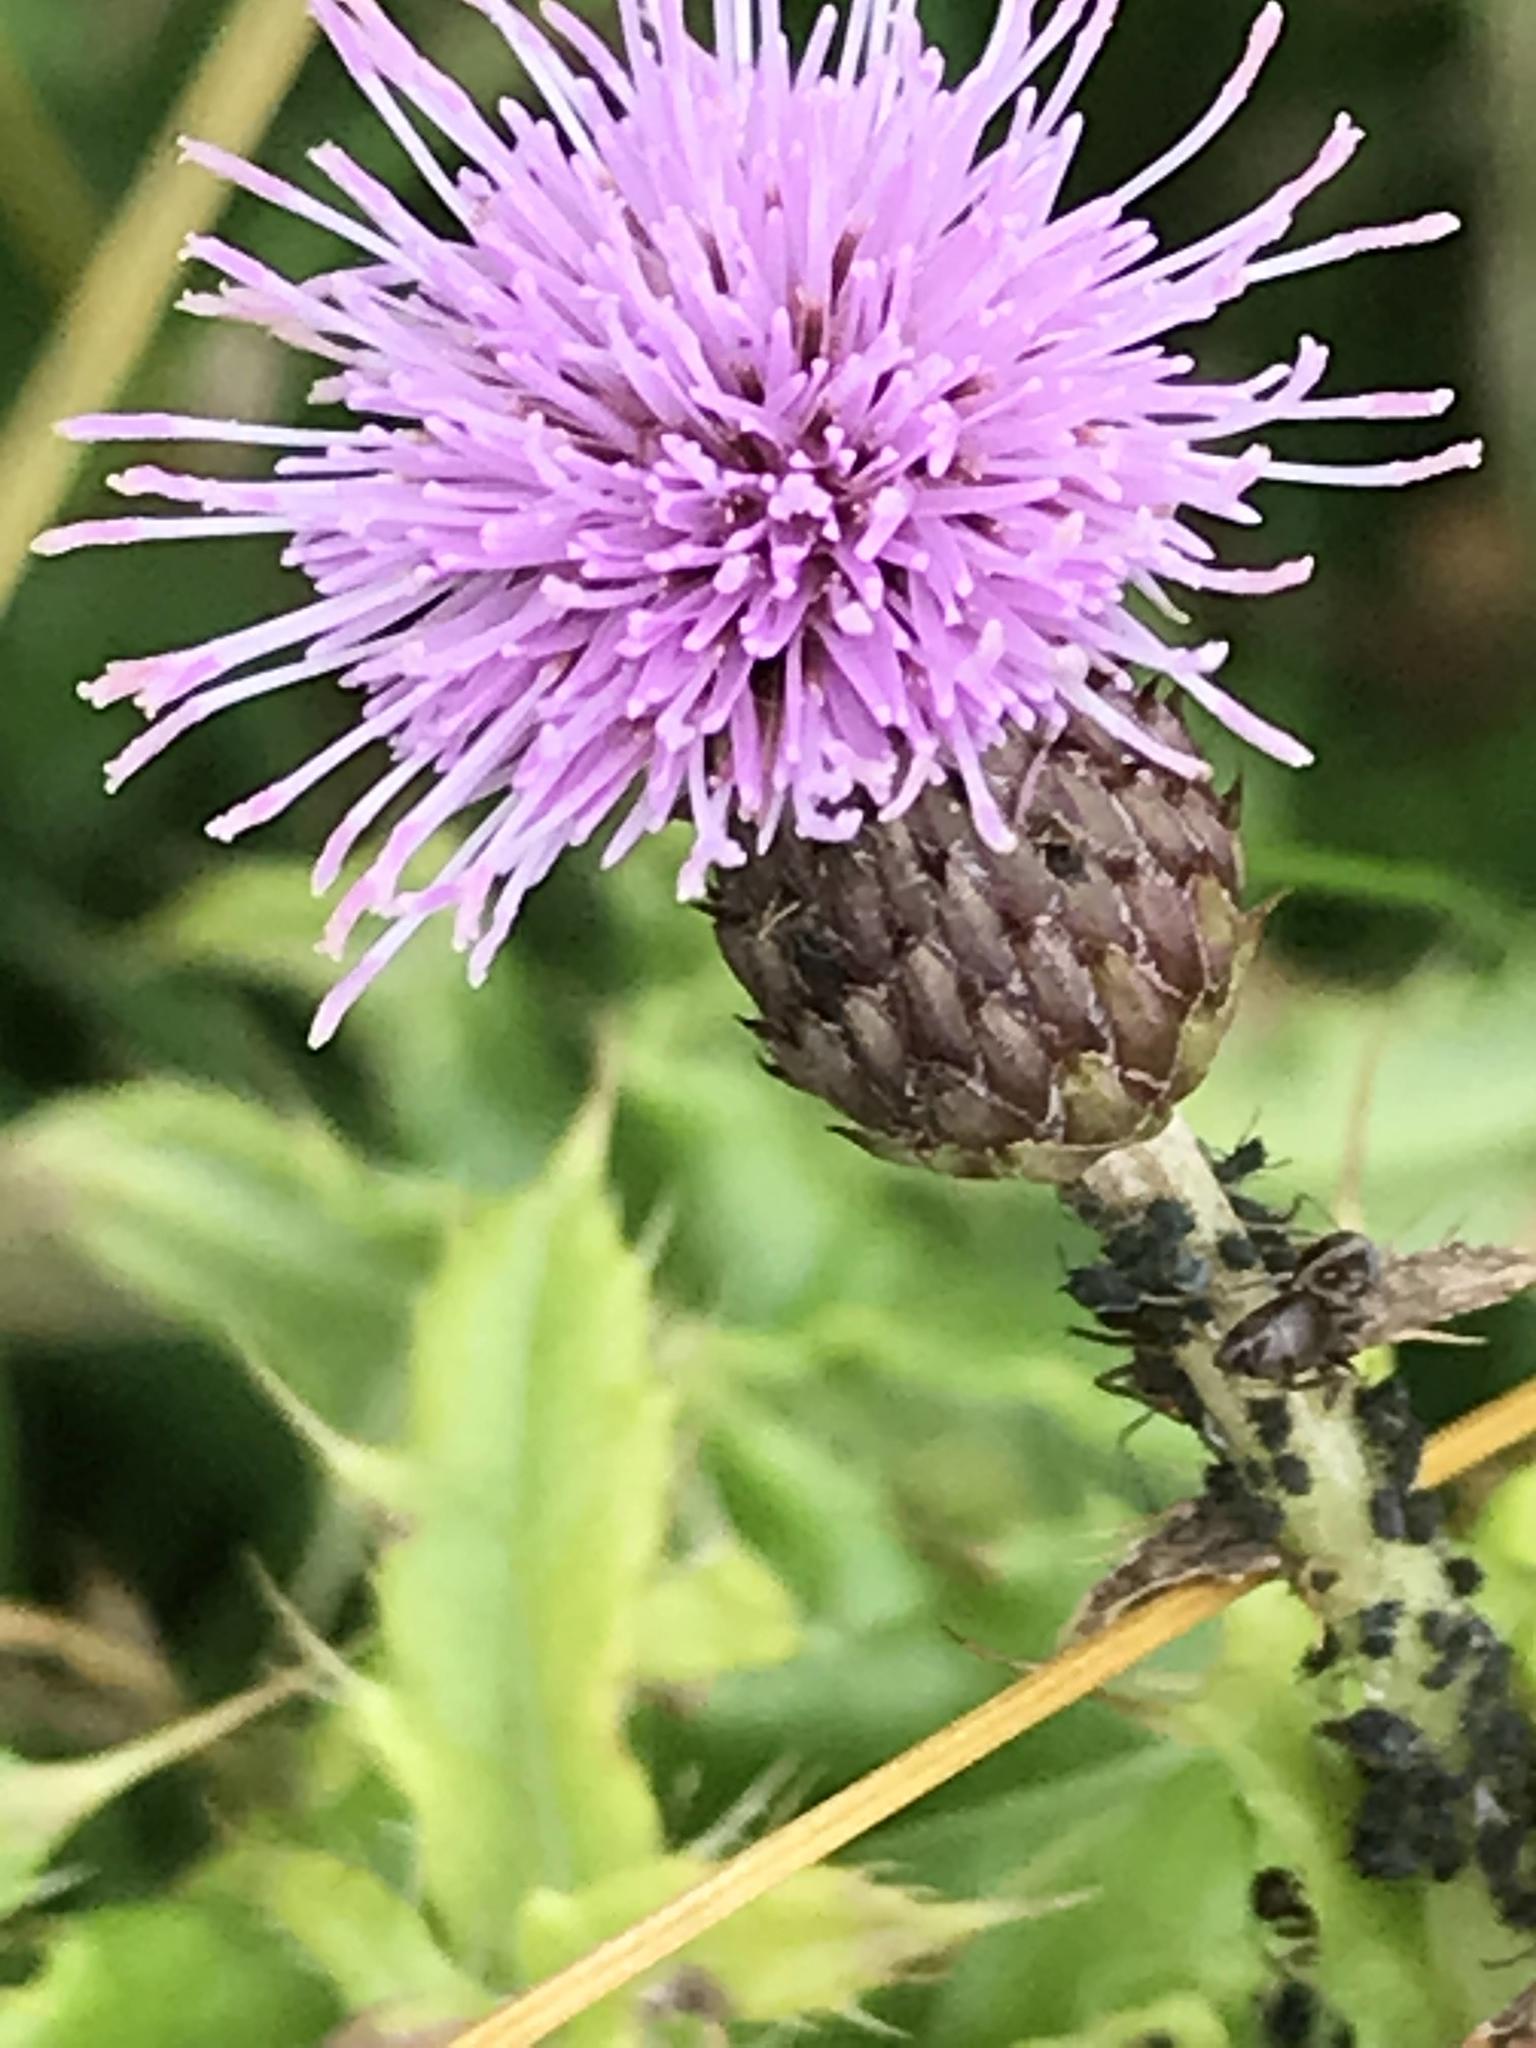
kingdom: Plantae
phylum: Tracheophyta
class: Magnoliopsida
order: Asterales
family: Asteraceae
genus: Cirsium
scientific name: Cirsium arvense
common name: Creeping thistle
